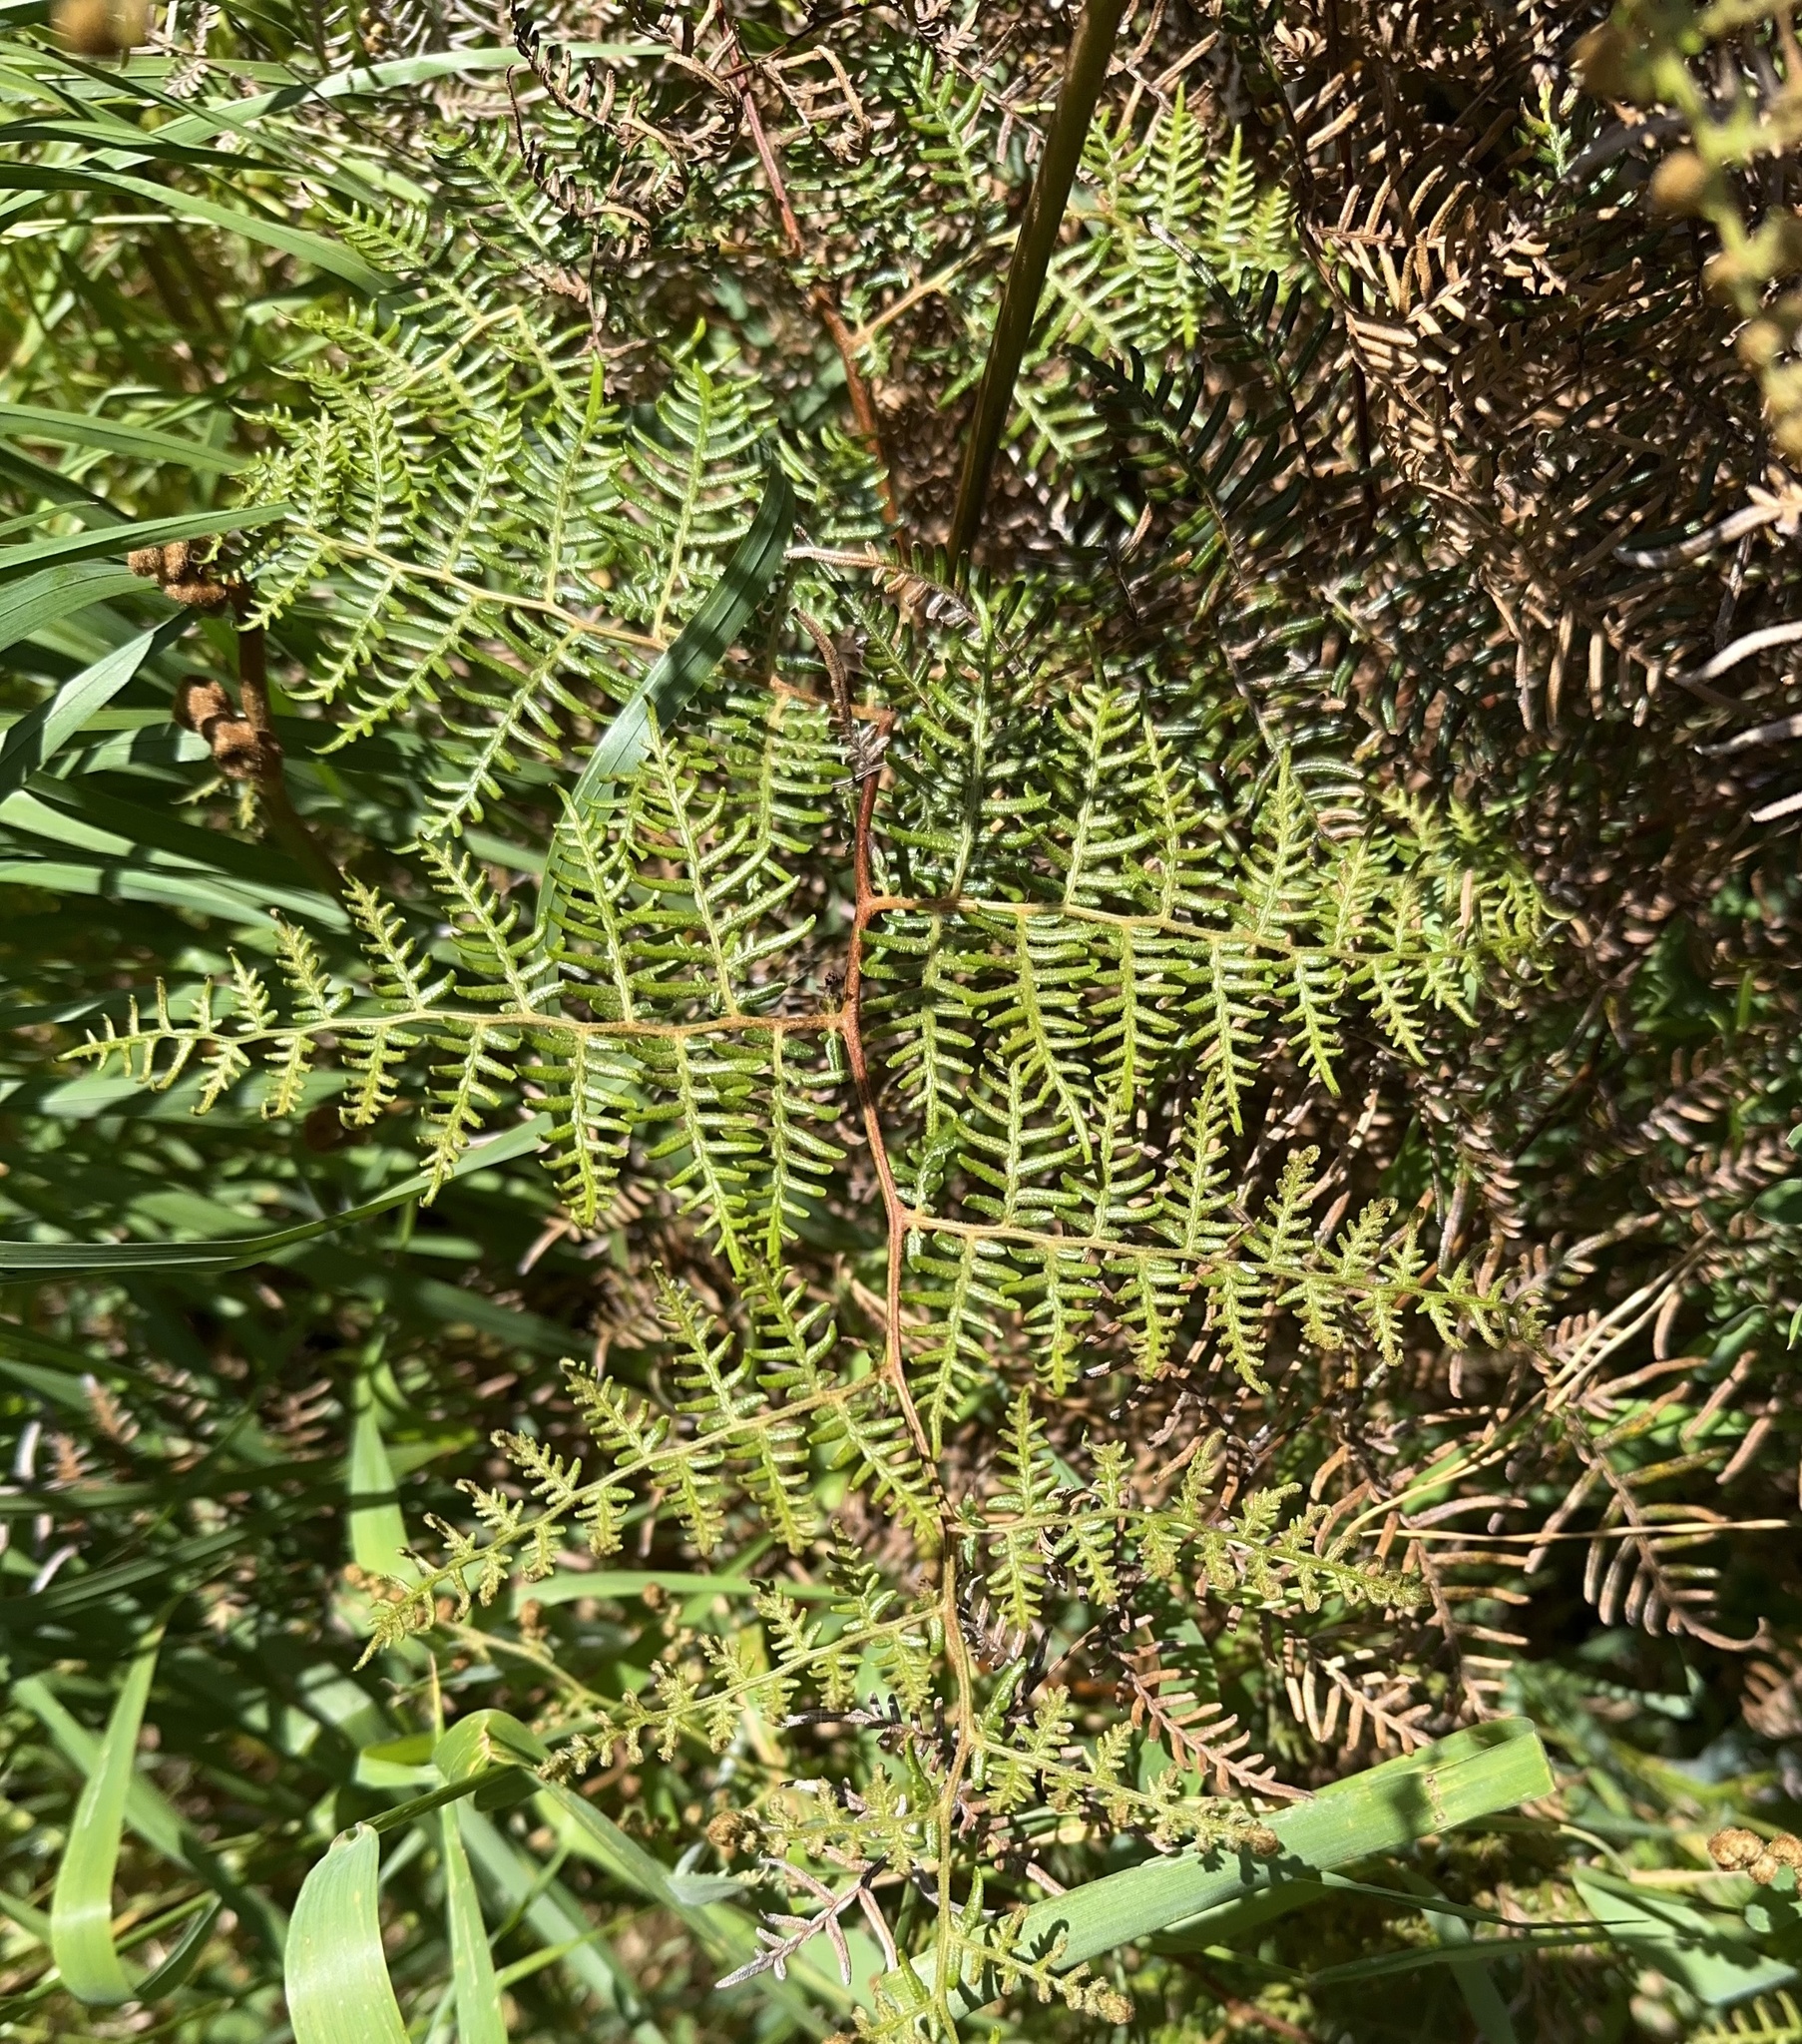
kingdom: Plantae
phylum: Tracheophyta
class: Polypodiopsida
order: Polypodiales
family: Dennstaedtiaceae
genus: Pteridium
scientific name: Pteridium esculentum
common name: Bracken fern
